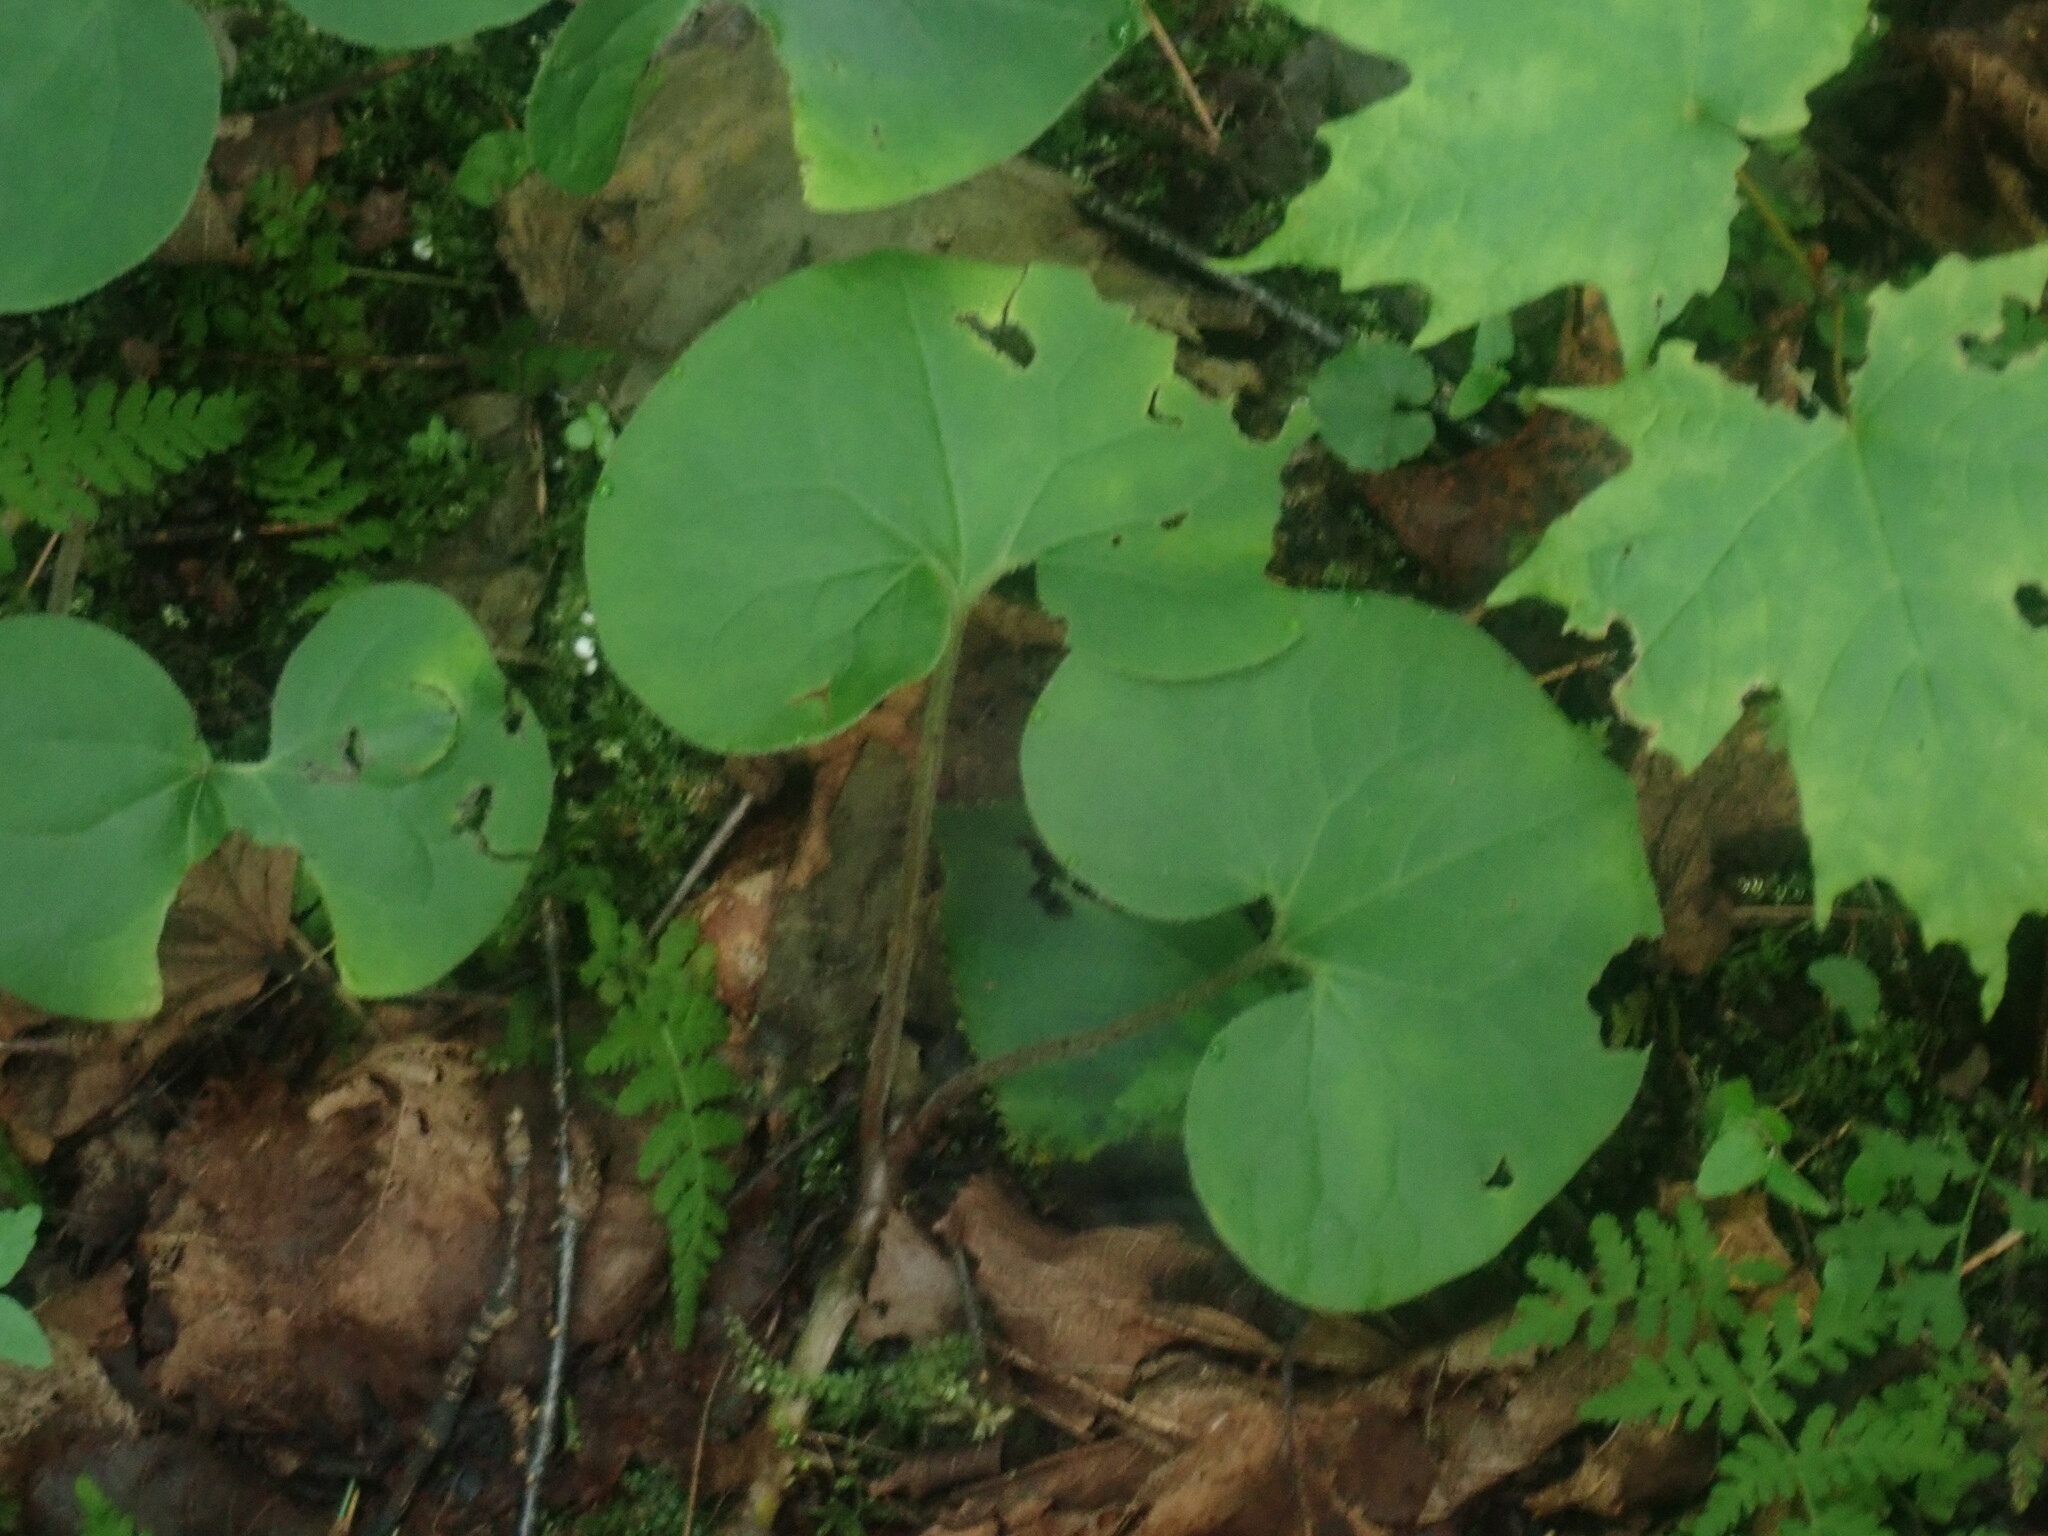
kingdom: Plantae
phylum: Tracheophyta
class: Magnoliopsida
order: Piperales
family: Aristolochiaceae
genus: Asarum
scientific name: Asarum canadense
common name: Wild ginger
